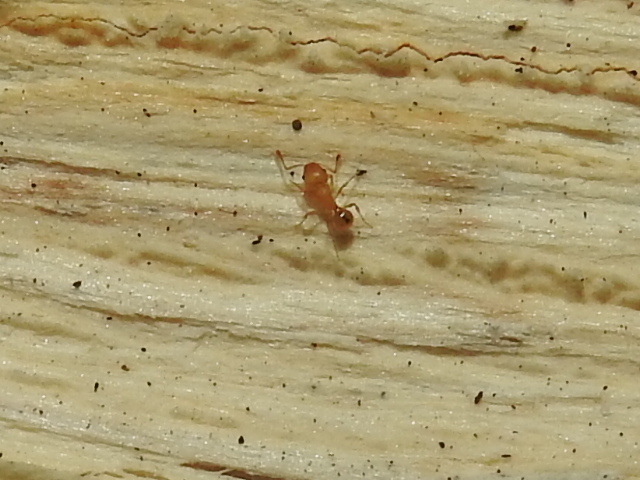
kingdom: Animalia
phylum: Arthropoda
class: Insecta
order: Hymenoptera
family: Formicidae
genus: Wasmannia
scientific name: Wasmannia auropunctata
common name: Little fire ant
